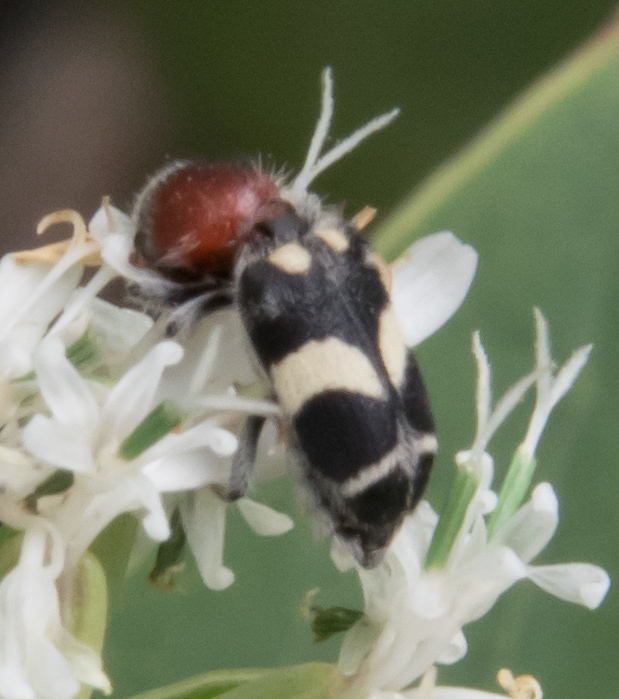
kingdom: Animalia
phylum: Arthropoda
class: Insecta
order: Coleoptera
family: Cleridae
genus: Enoclerus
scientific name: Enoclerus laetus
